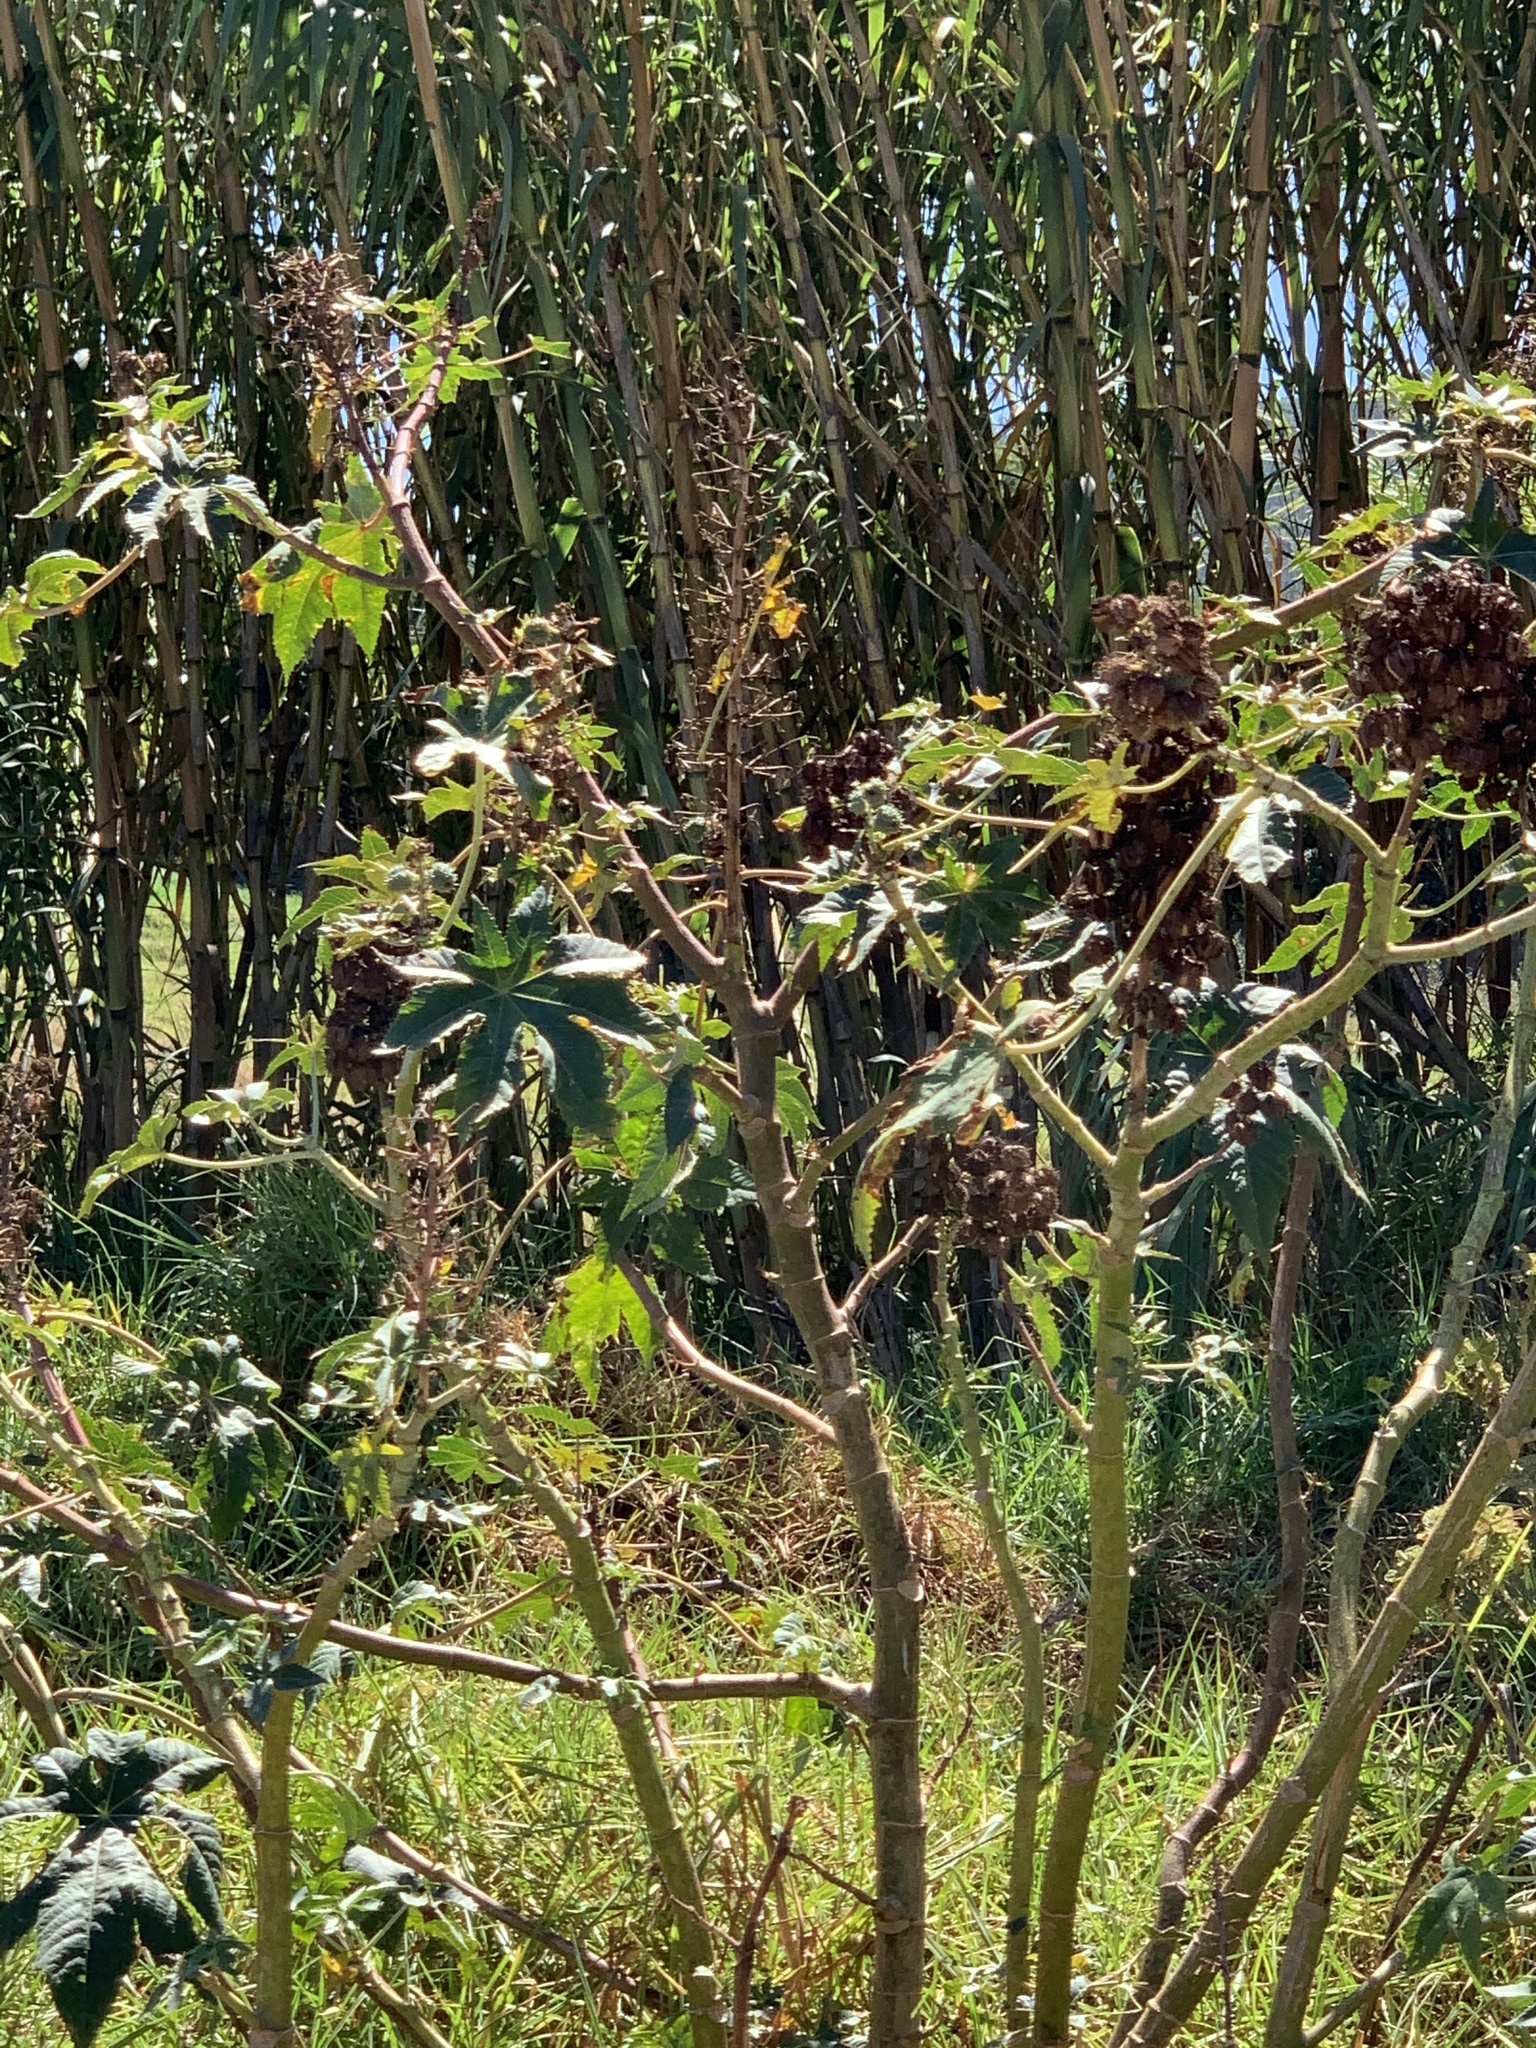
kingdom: Plantae
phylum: Tracheophyta
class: Magnoliopsida
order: Malpighiales
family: Euphorbiaceae
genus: Ricinus
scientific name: Ricinus communis
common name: Castor-oil-plant
